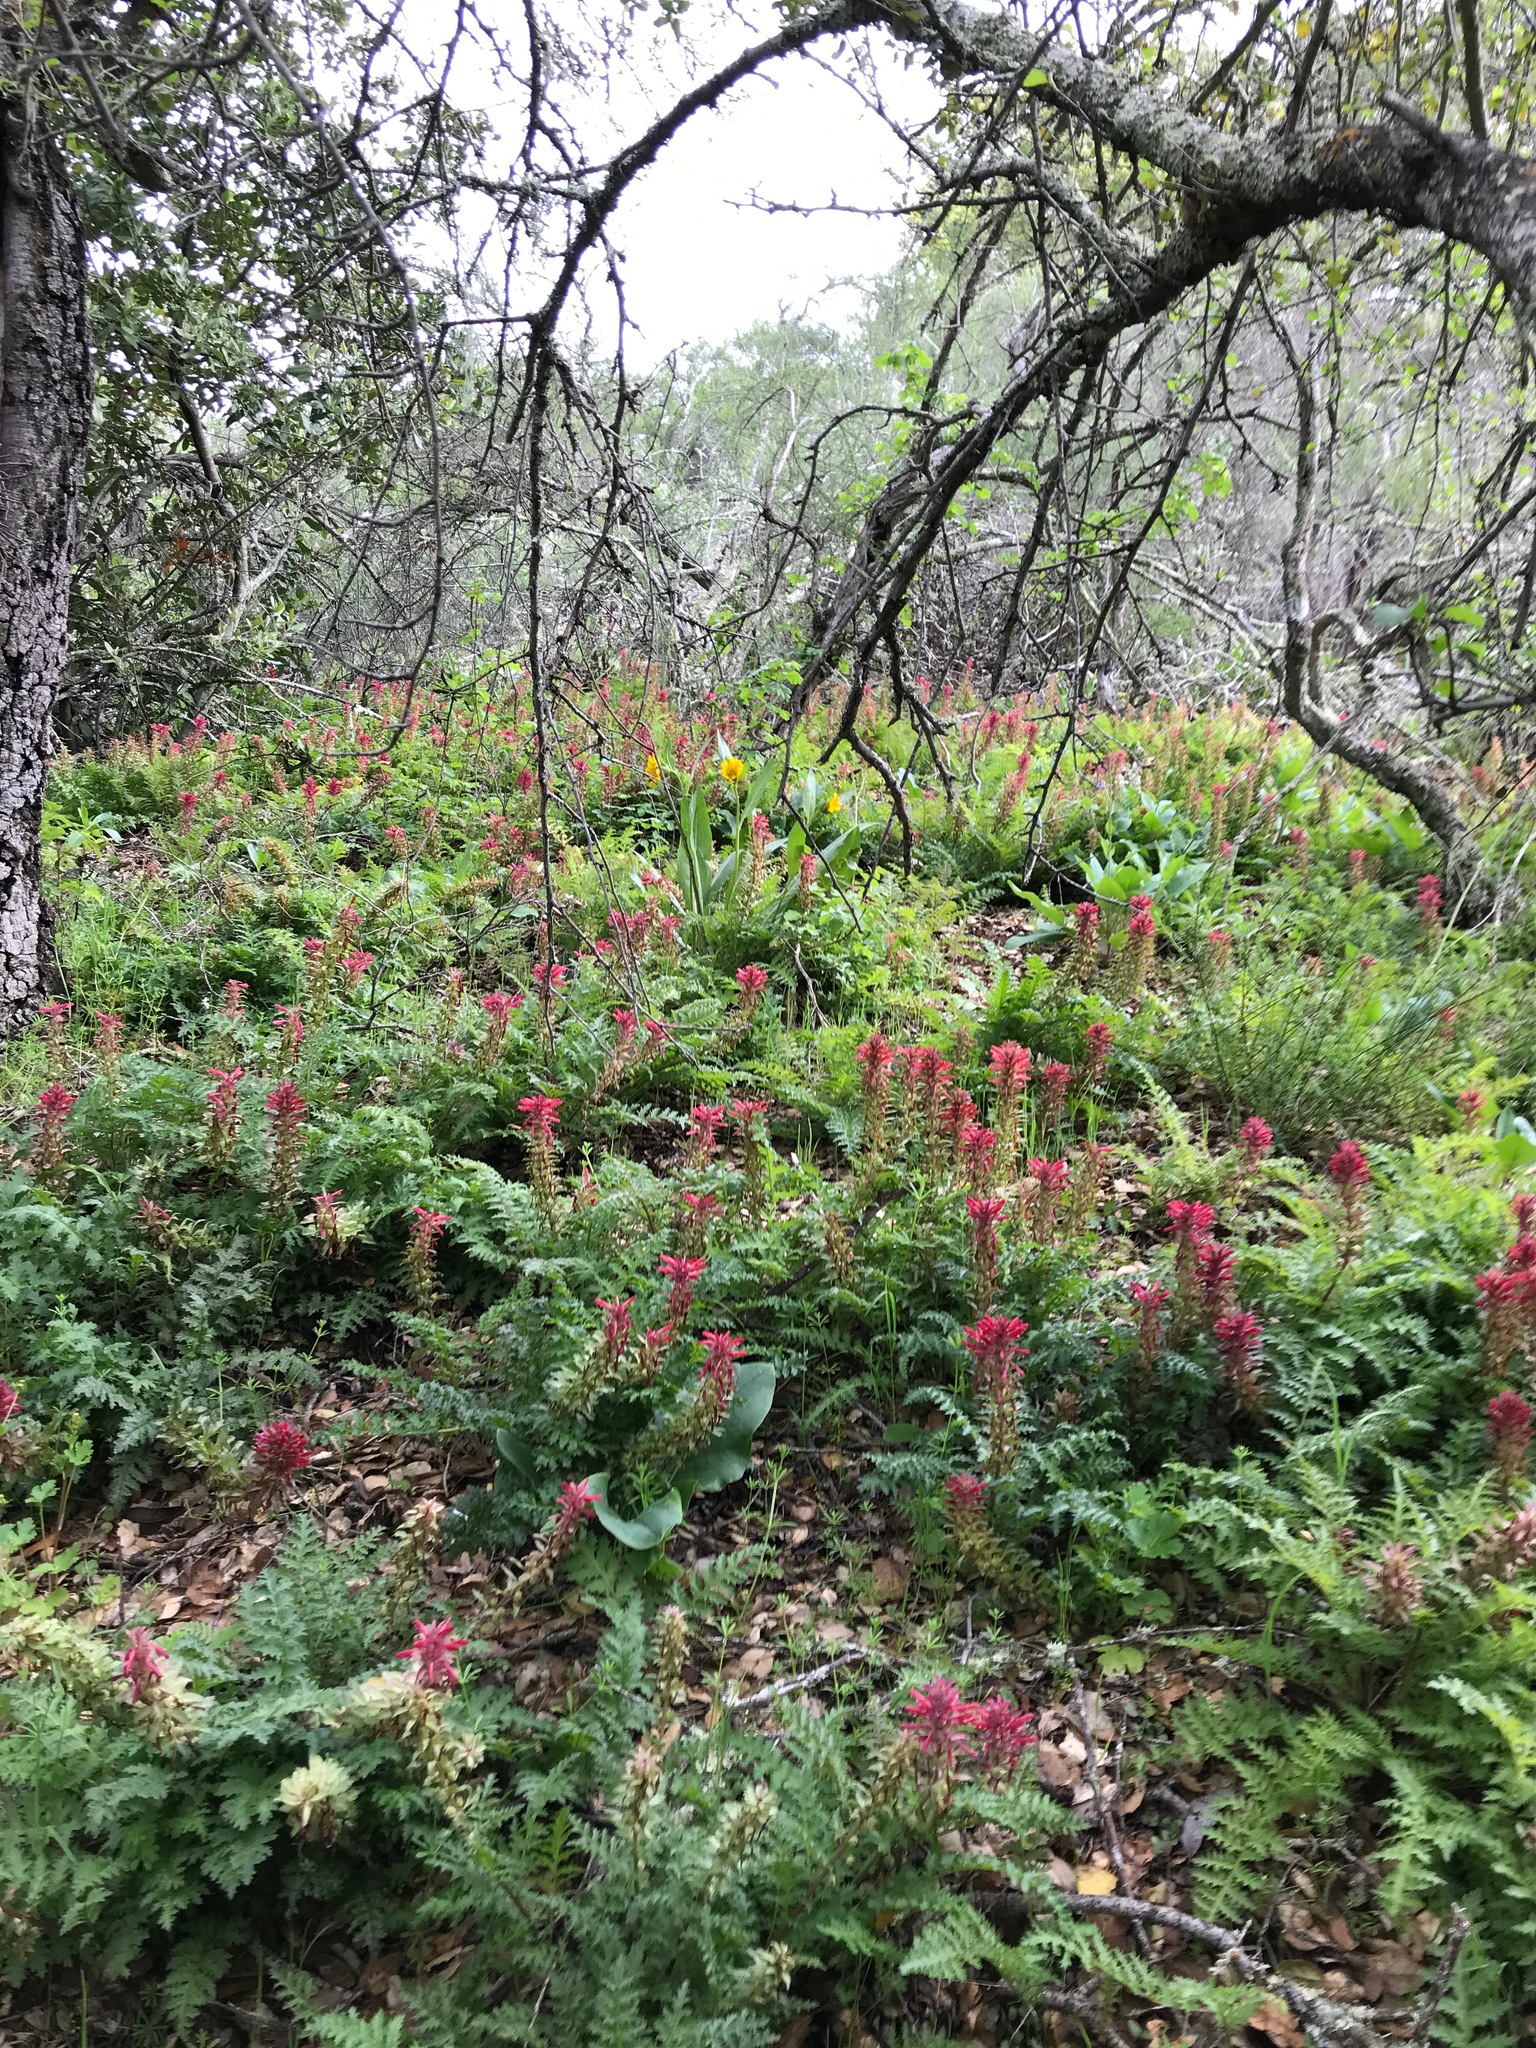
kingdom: Plantae
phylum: Tracheophyta
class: Magnoliopsida
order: Lamiales
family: Orobanchaceae
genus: Pedicularis
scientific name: Pedicularis densiflora
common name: Indian warrior
